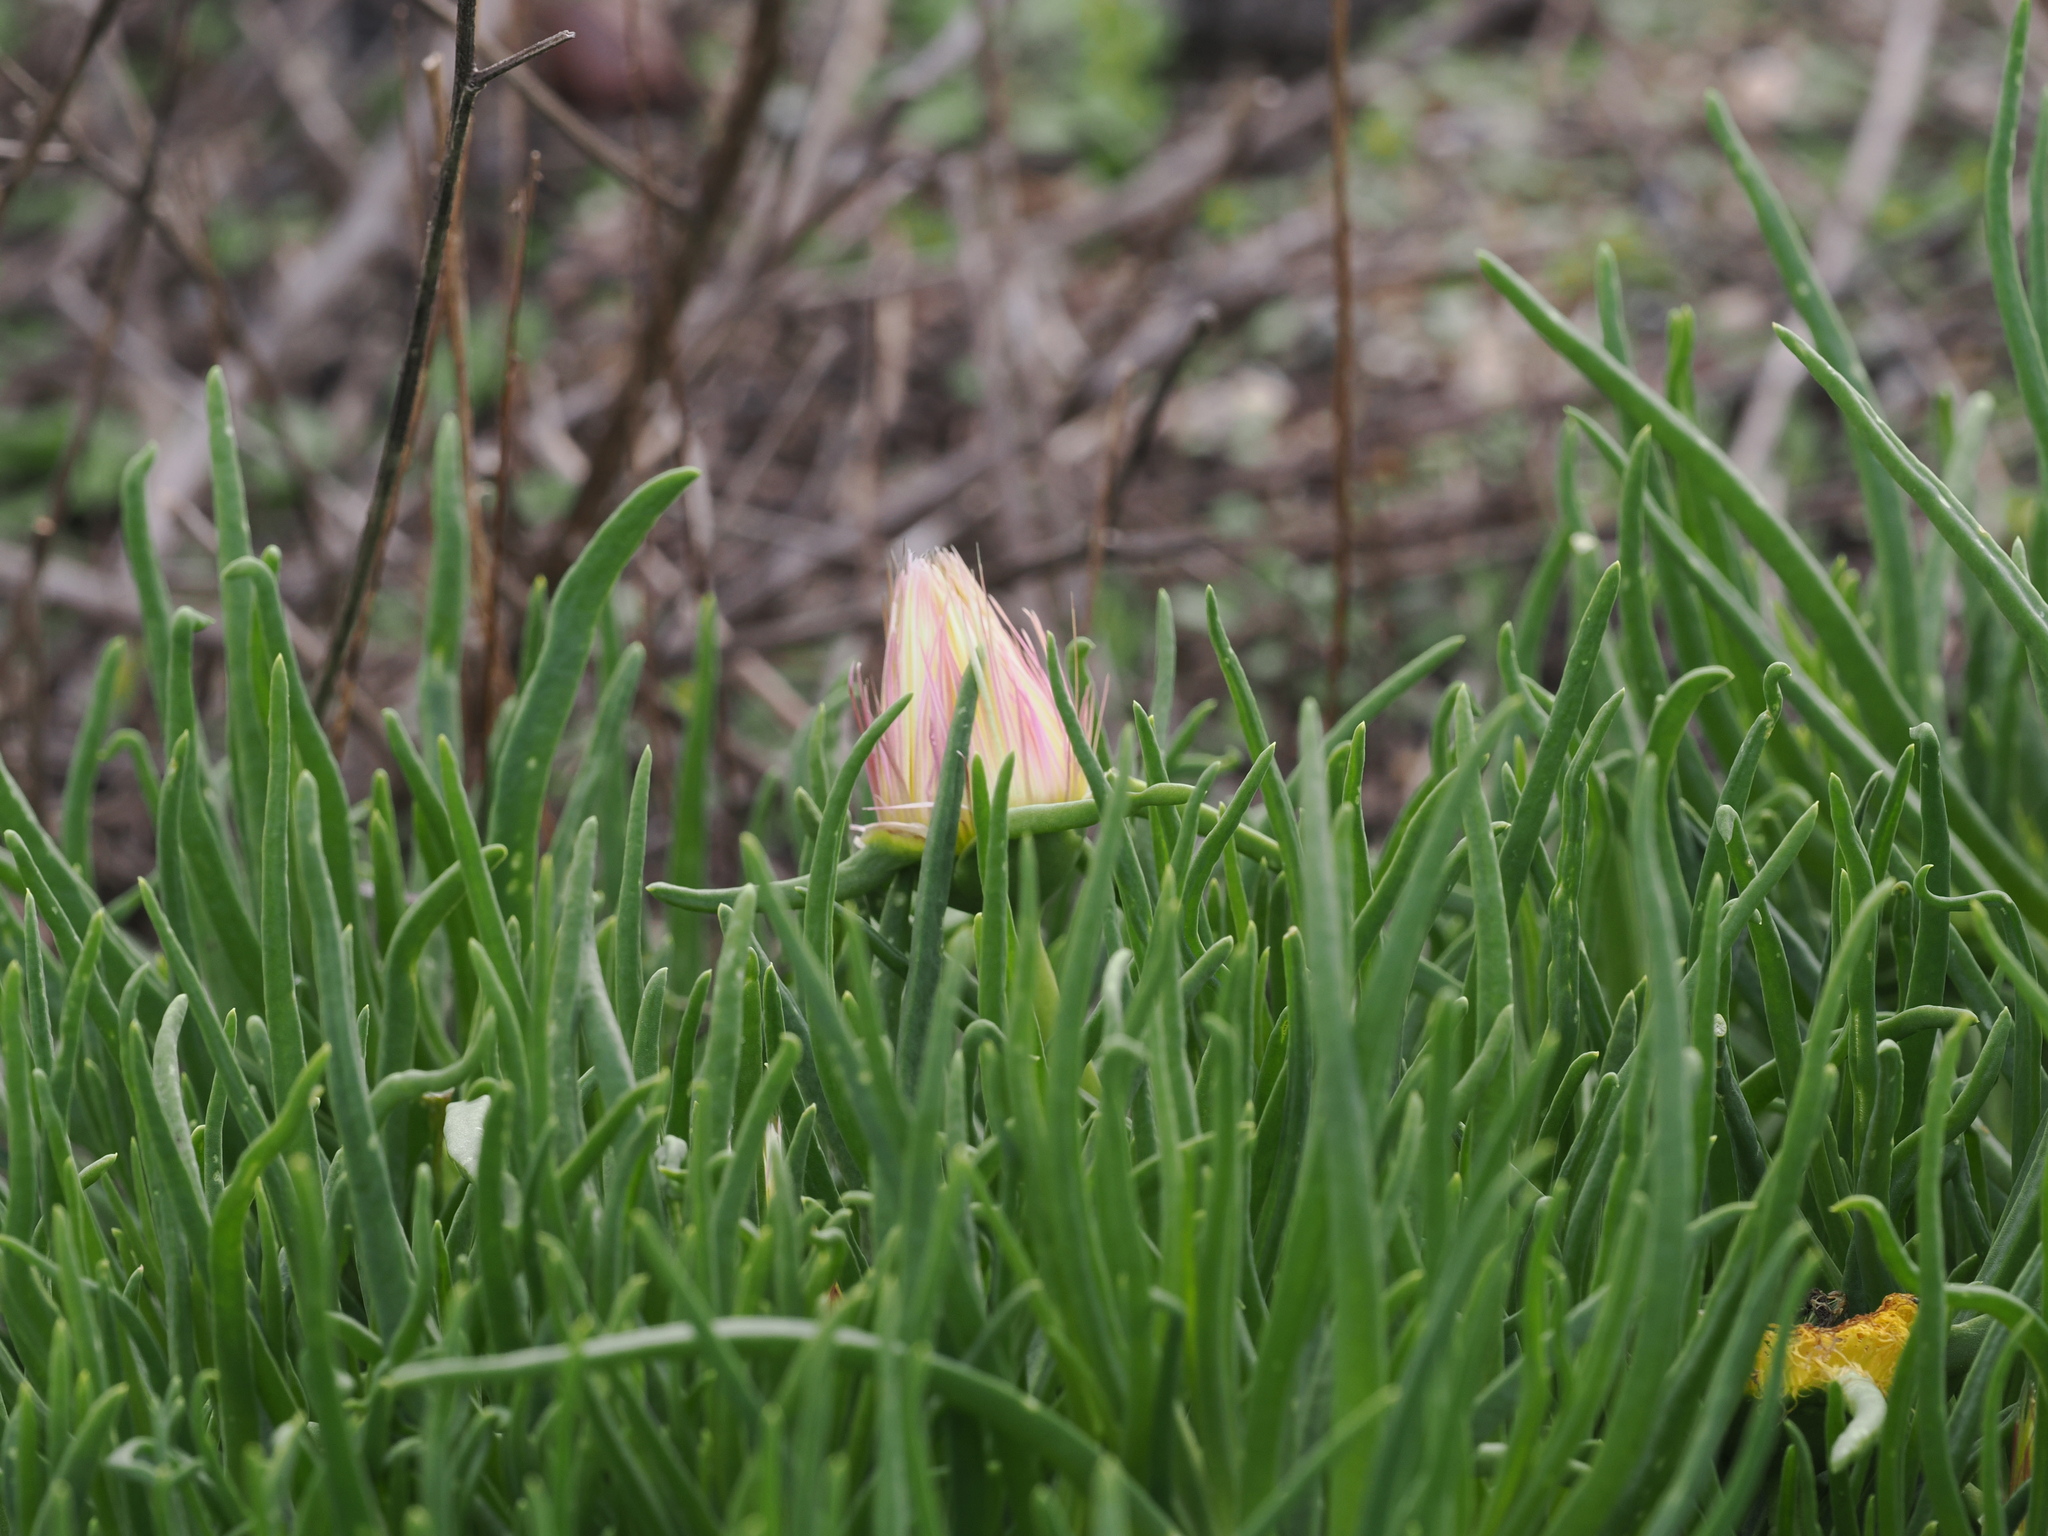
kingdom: Plantae
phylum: Tracheophyta
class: Magnoliopsida
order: Caryophyllales
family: Aizoaceae
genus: Conicosia
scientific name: Conicosia pugioniformis
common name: Narrow-leaved iceplant
